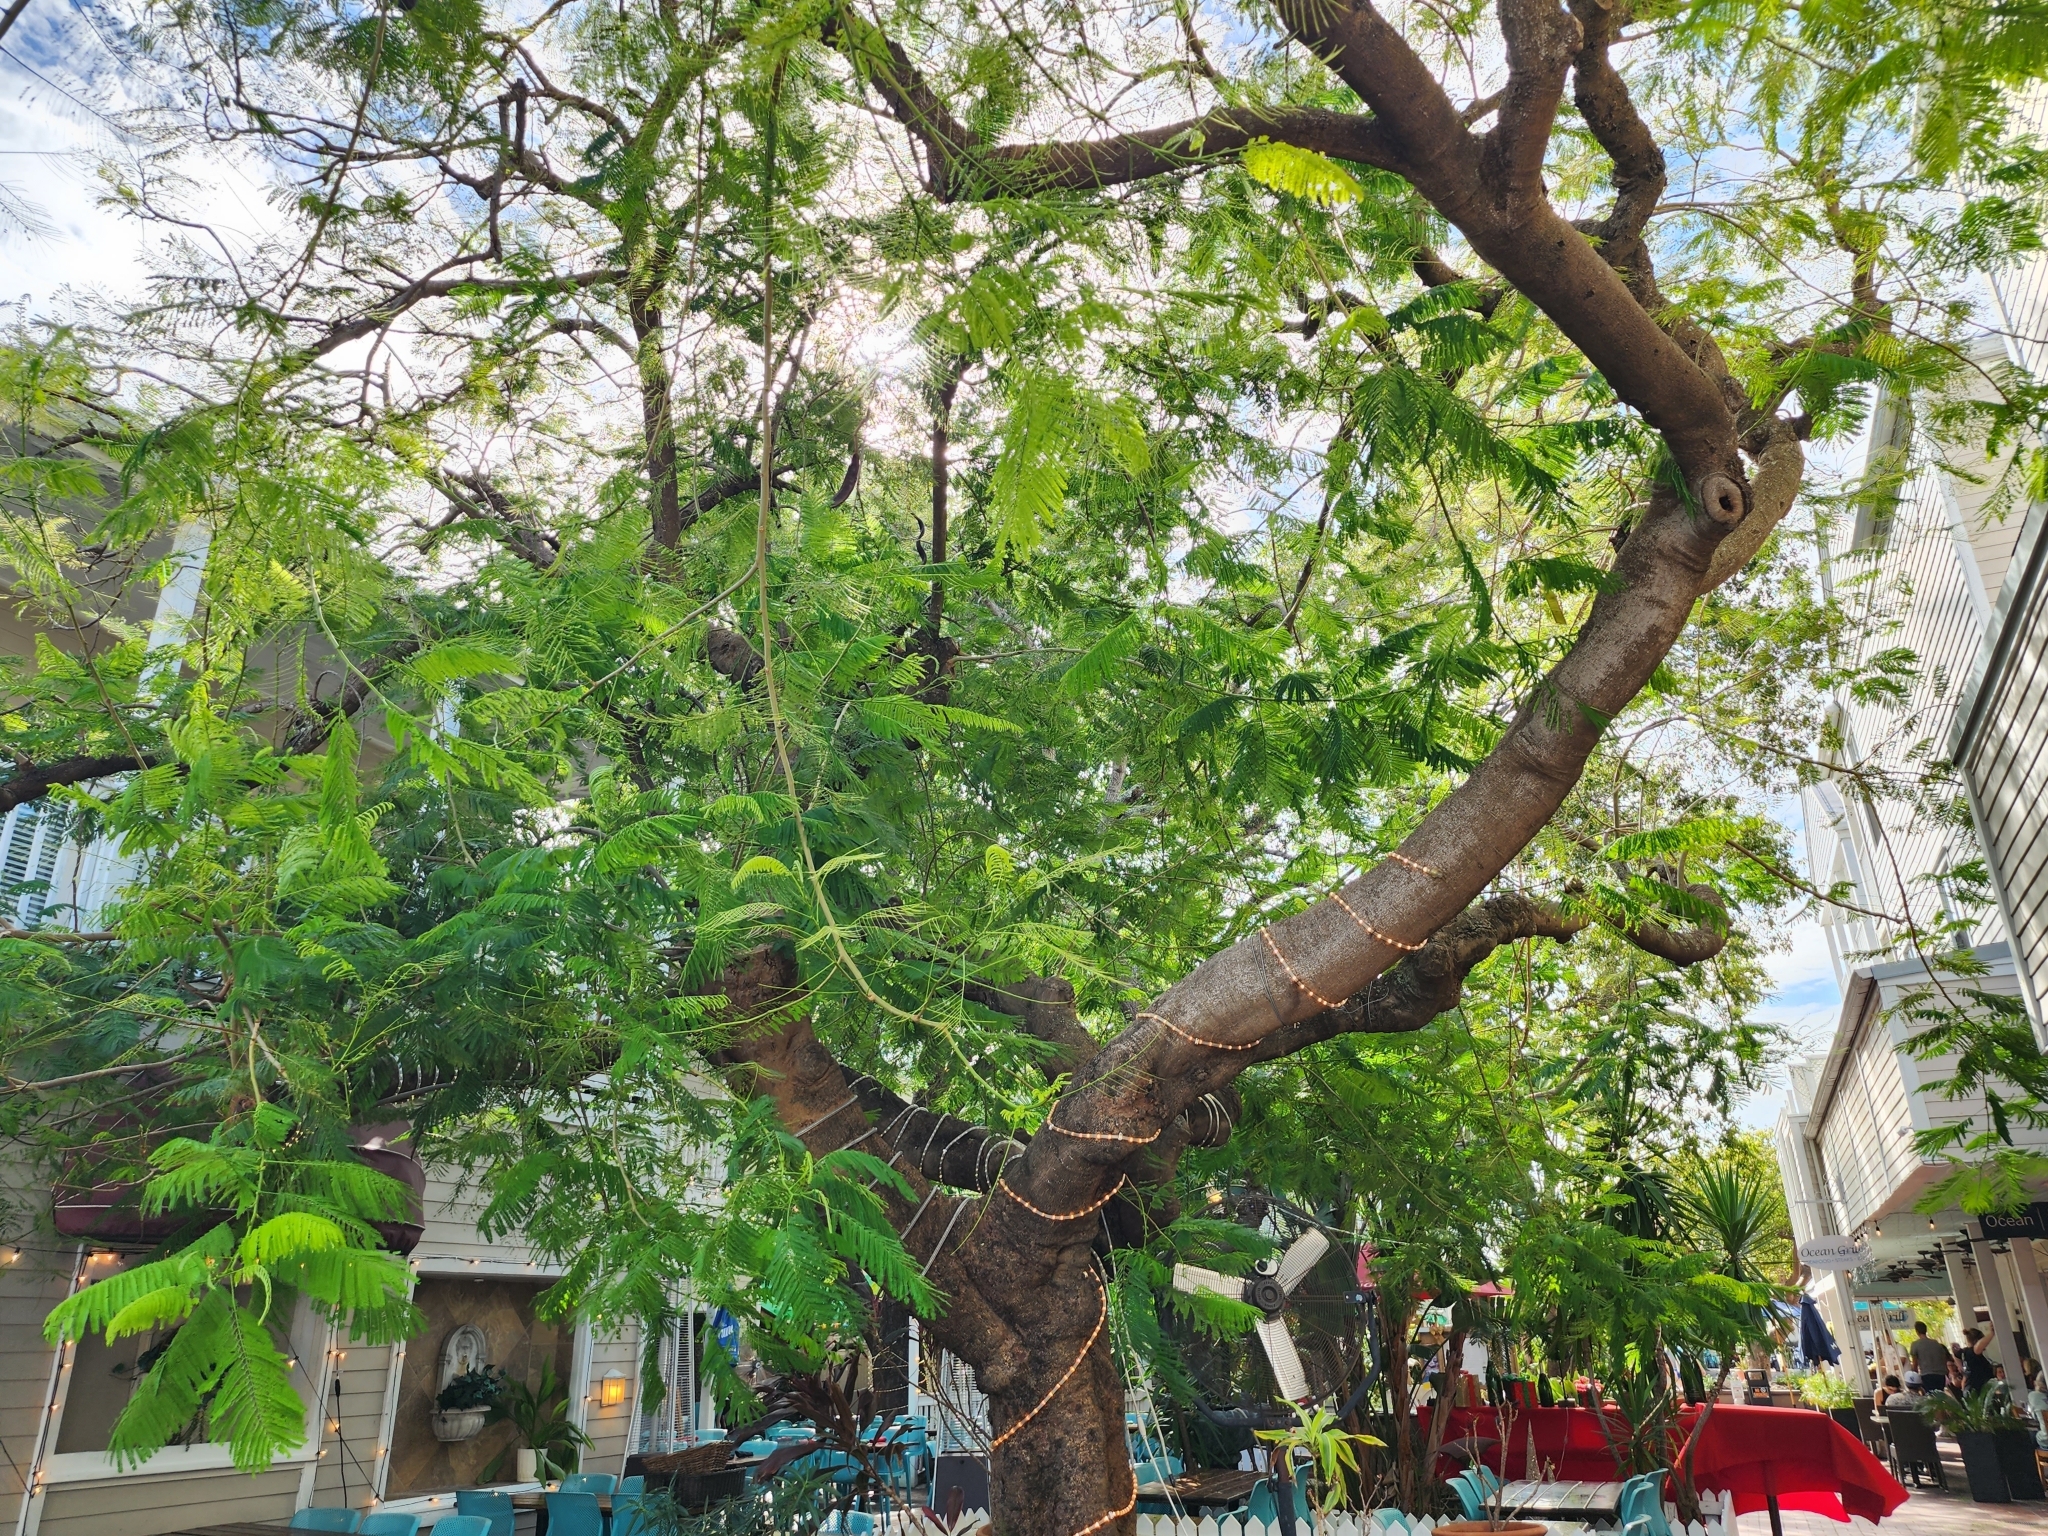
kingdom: Plantae
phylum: Tracheophyta
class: Magnoliopsida
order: Fabales
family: Fabaceae
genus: Delonix
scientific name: Delonix regia
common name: Royal poinciana
